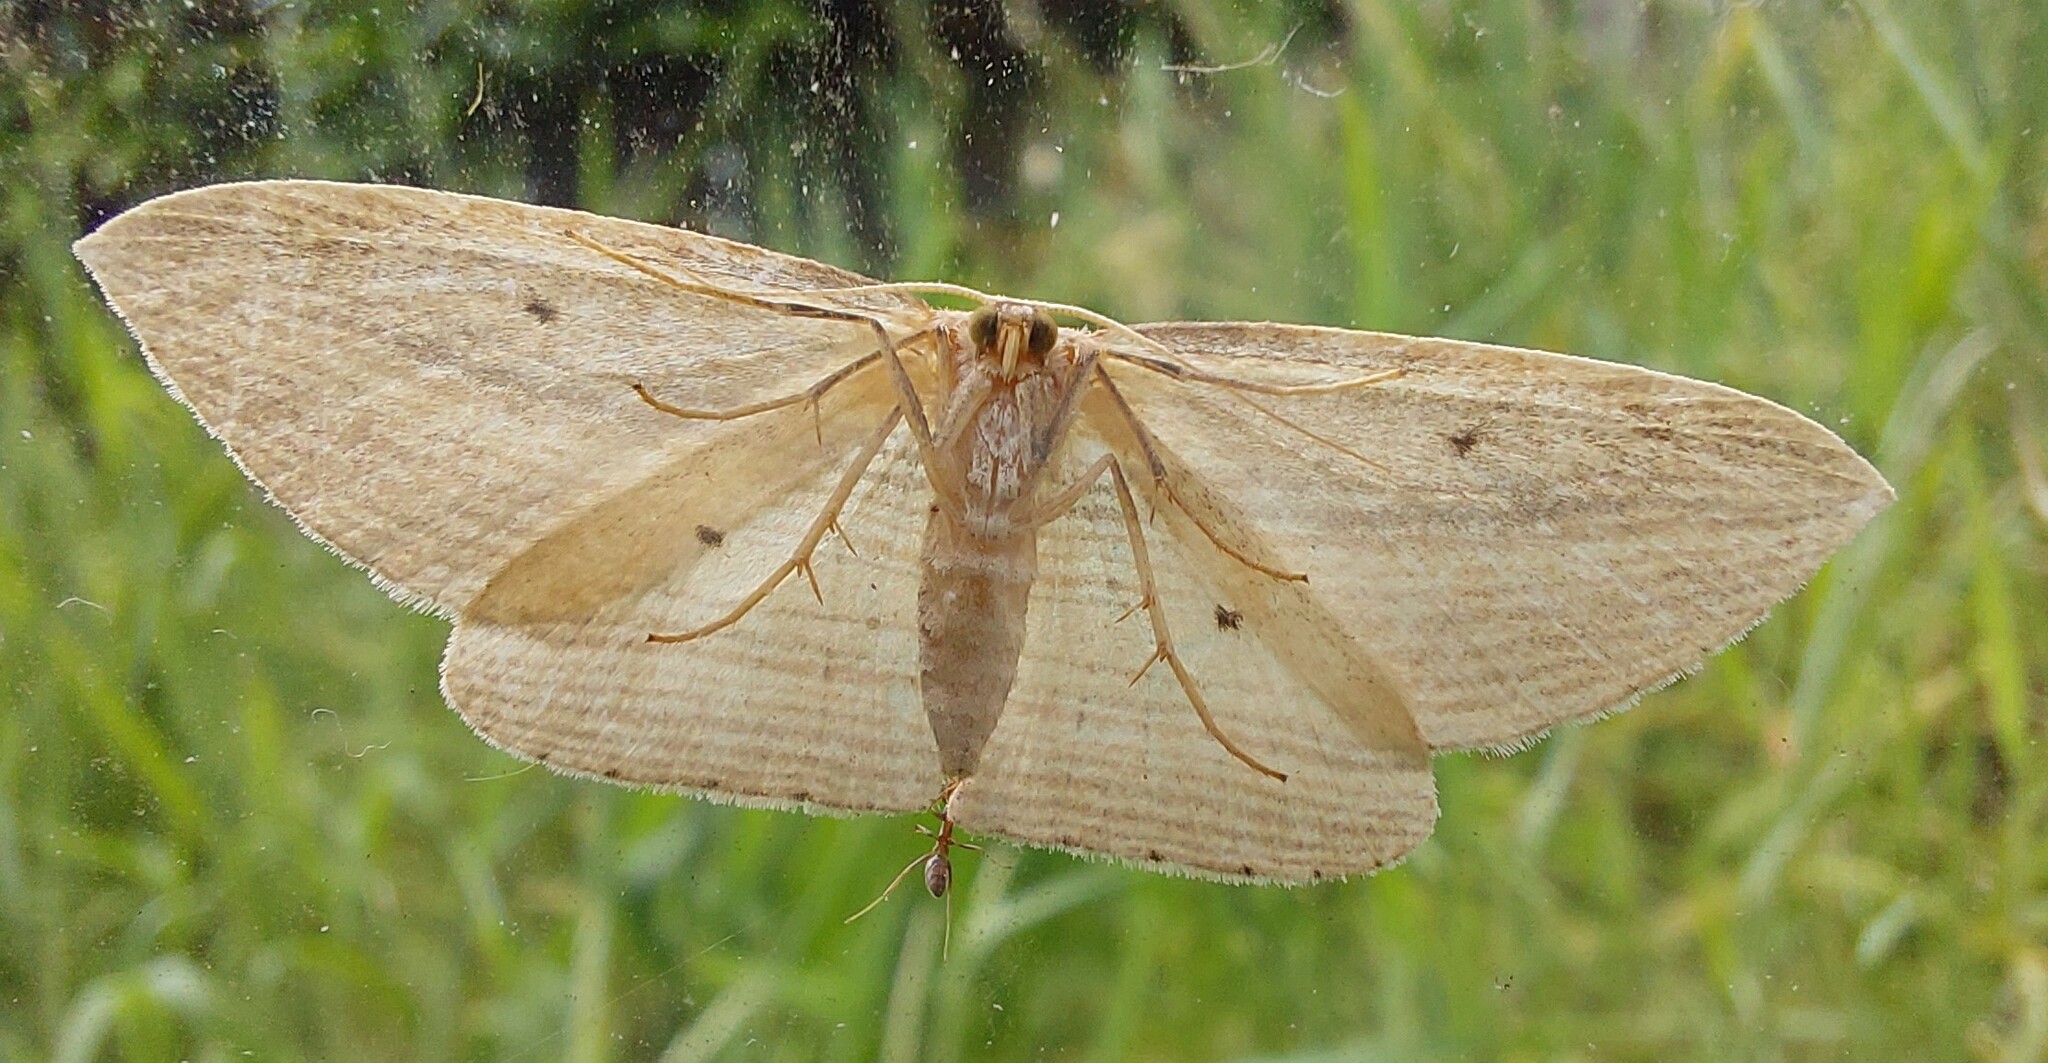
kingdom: Animalia
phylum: Arthropoda
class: Insecta
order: Lepidoptera
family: Geometridae
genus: Epiphryne
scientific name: Epiphryne verriculata
